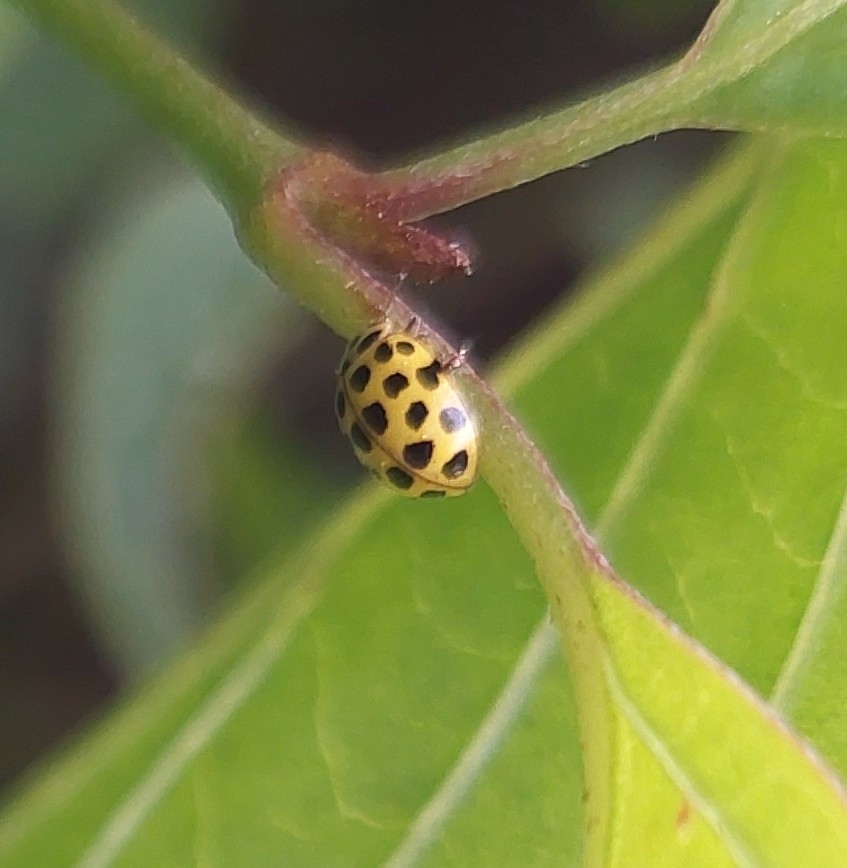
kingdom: Animalia
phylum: Arthropoda
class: Insecta
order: Coleoptera
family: Coccinellidae
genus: Psyllobora
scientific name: Psyllobora vigintiduopunctata
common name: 22-spot ladybird
